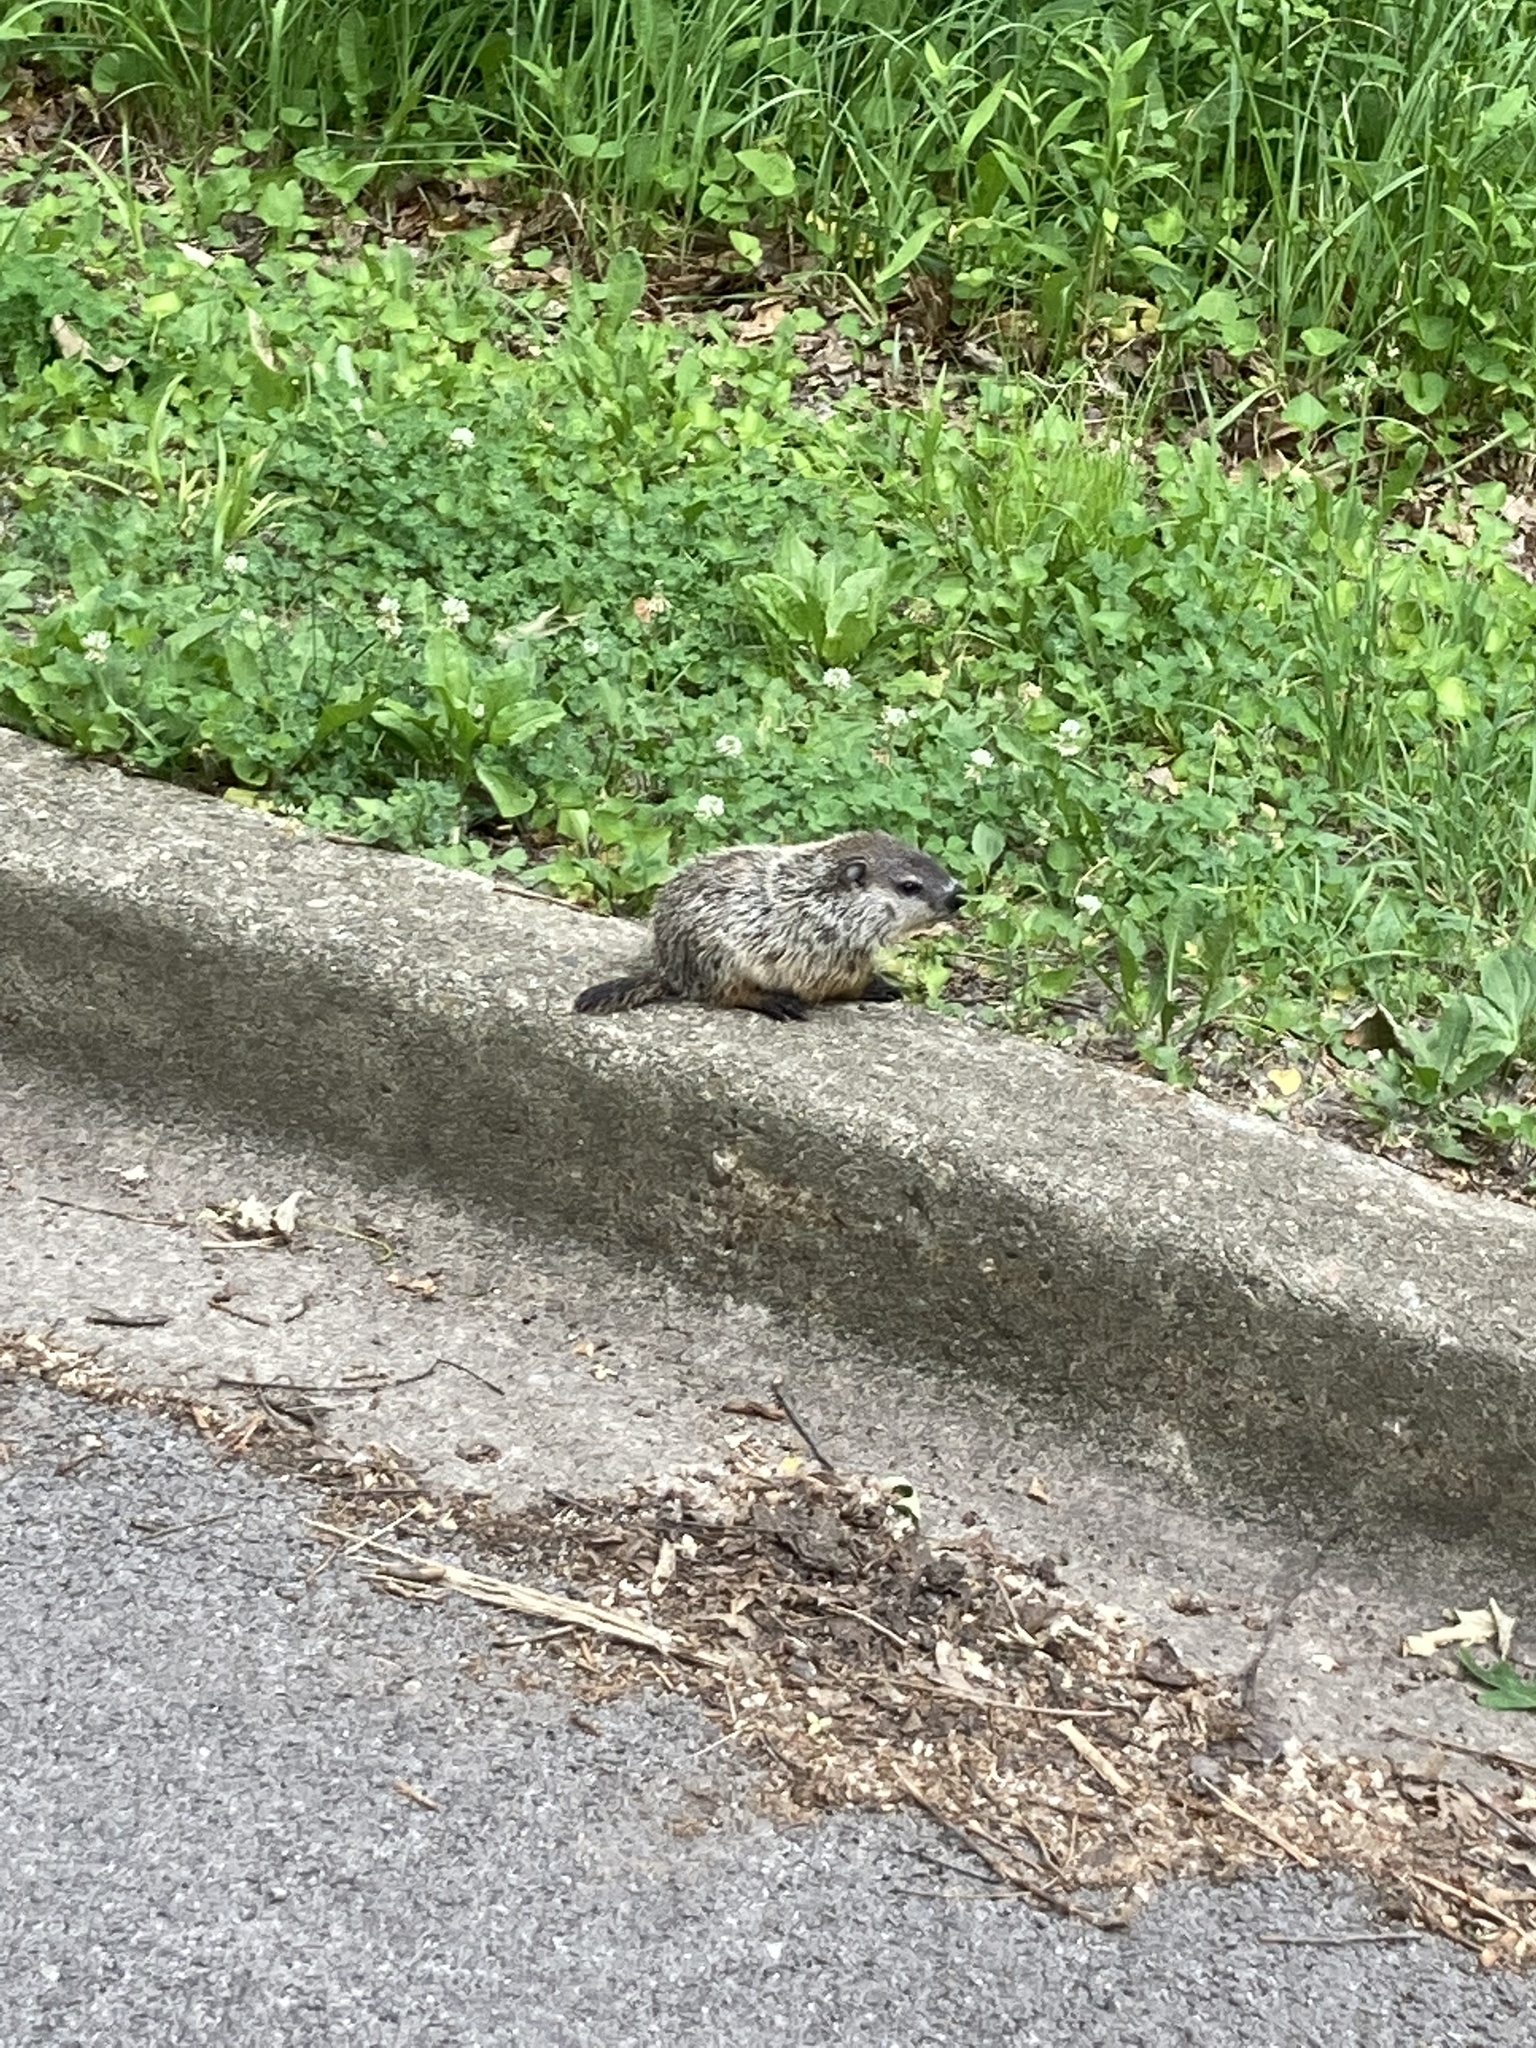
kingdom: Animalia
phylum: Chordata
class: Mammalia
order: Rodentia
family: Sciuridae
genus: Marmota
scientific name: Marmota monax
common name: Groundhog
